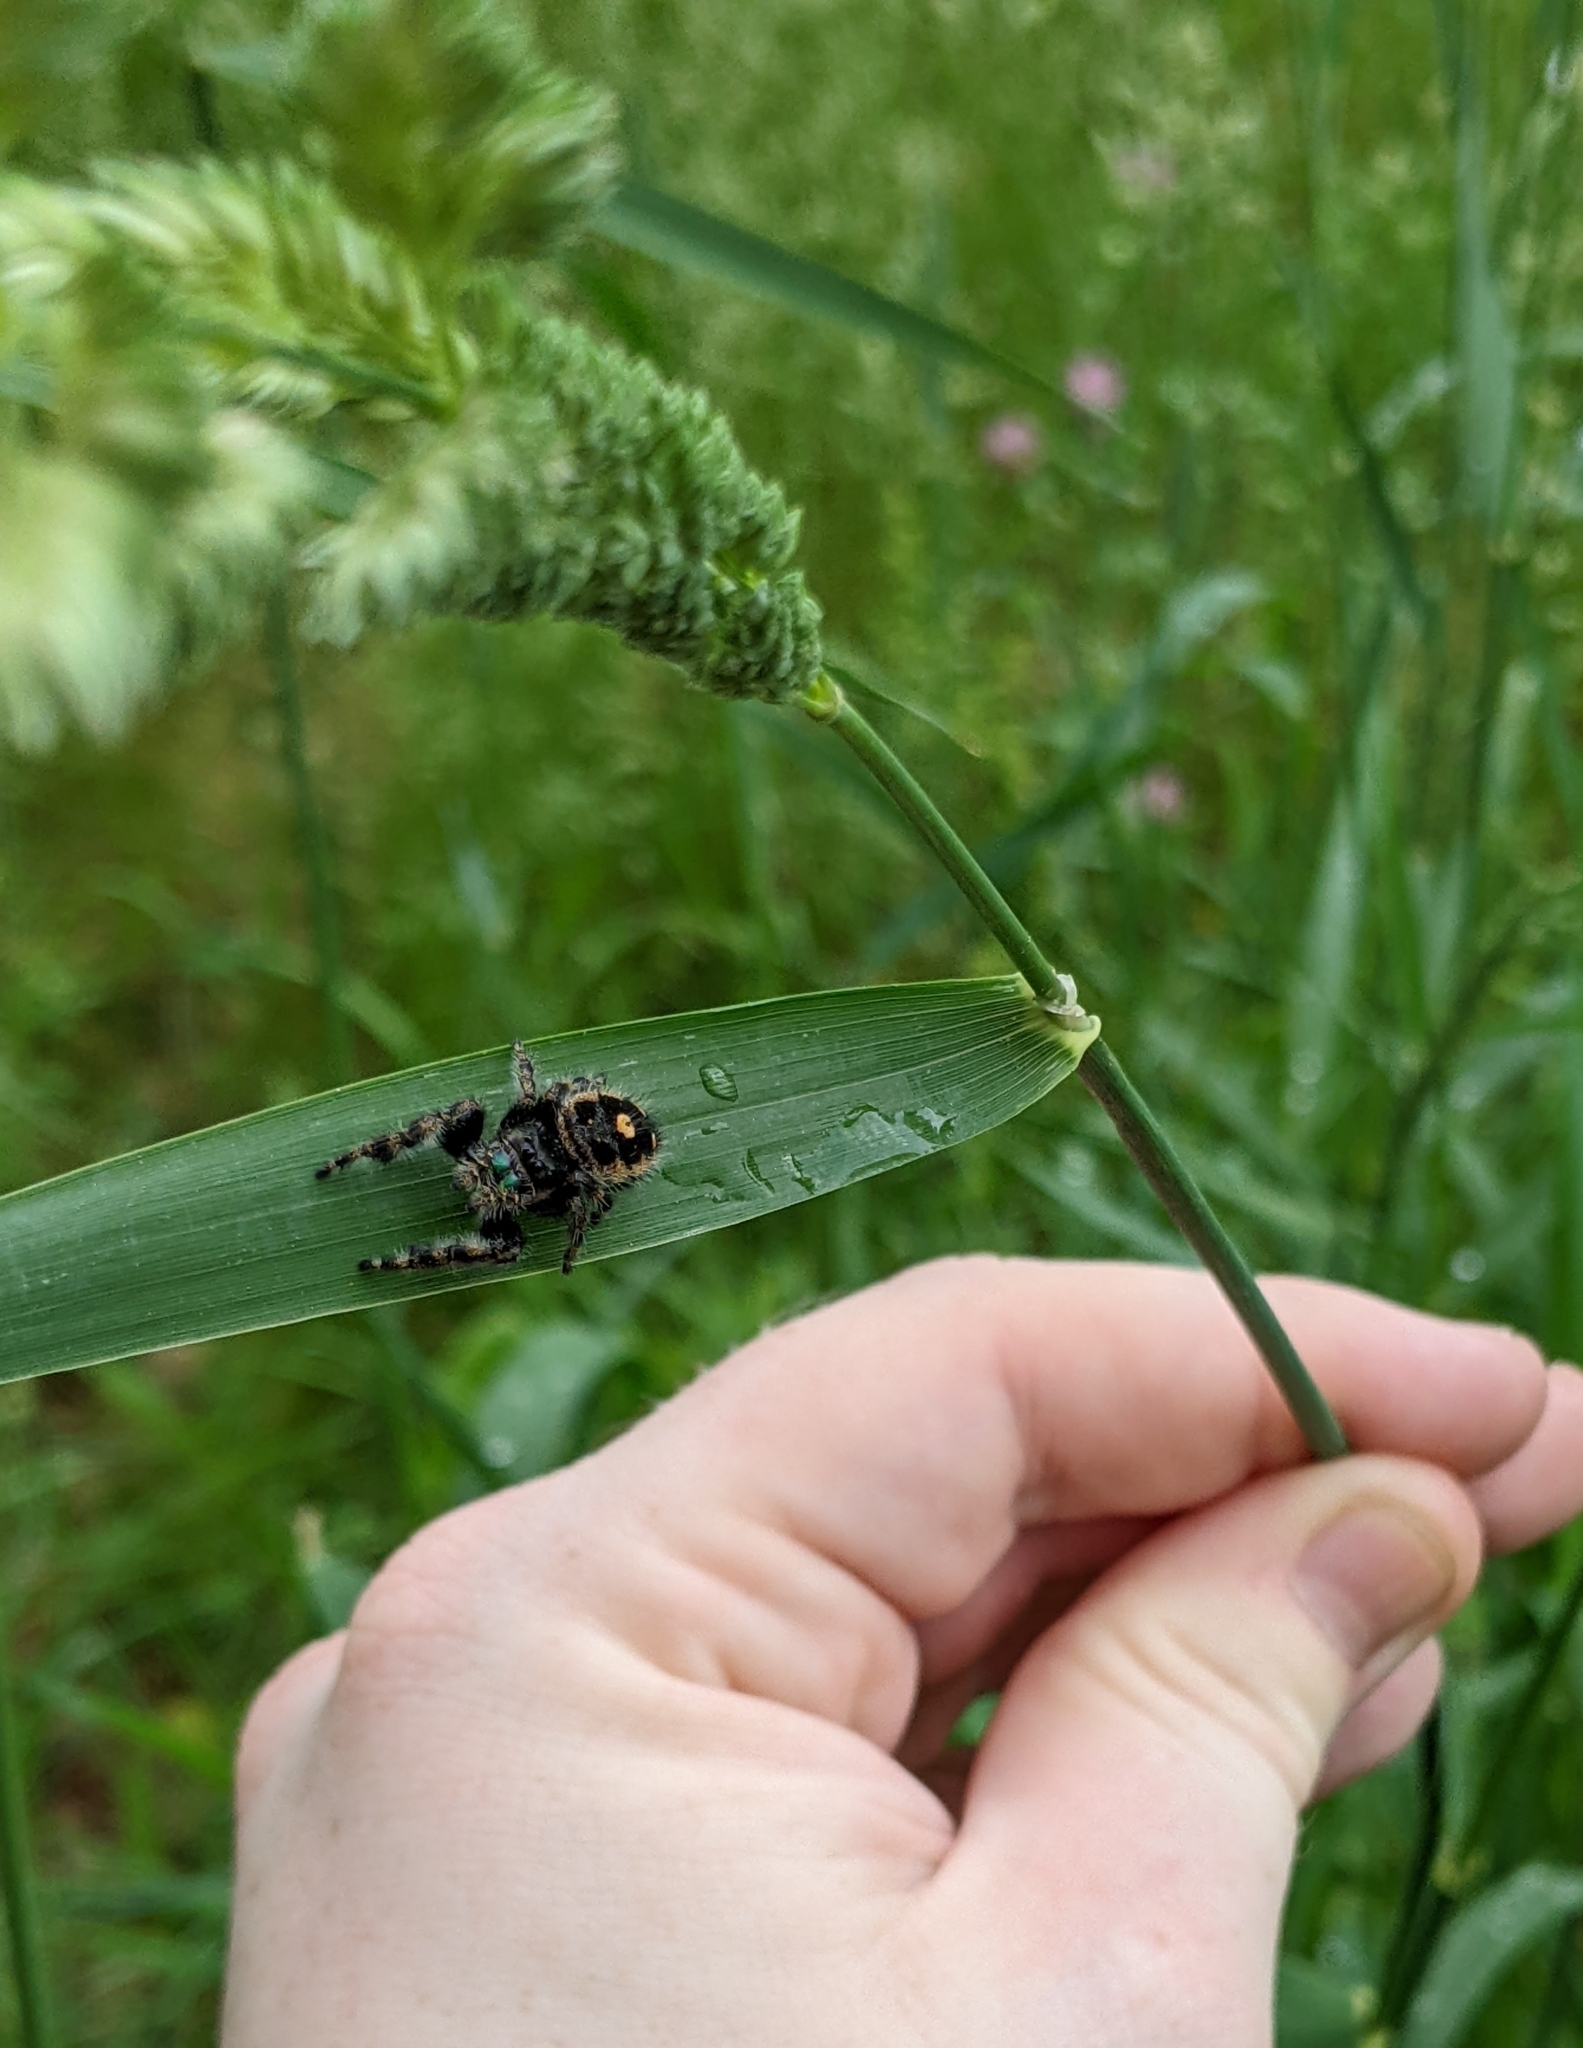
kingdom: Animalia
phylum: Arthropoda
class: Arachnida
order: Araneae
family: Salticidae
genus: Phidippus
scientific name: Phidippus audax
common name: Bold jumper
